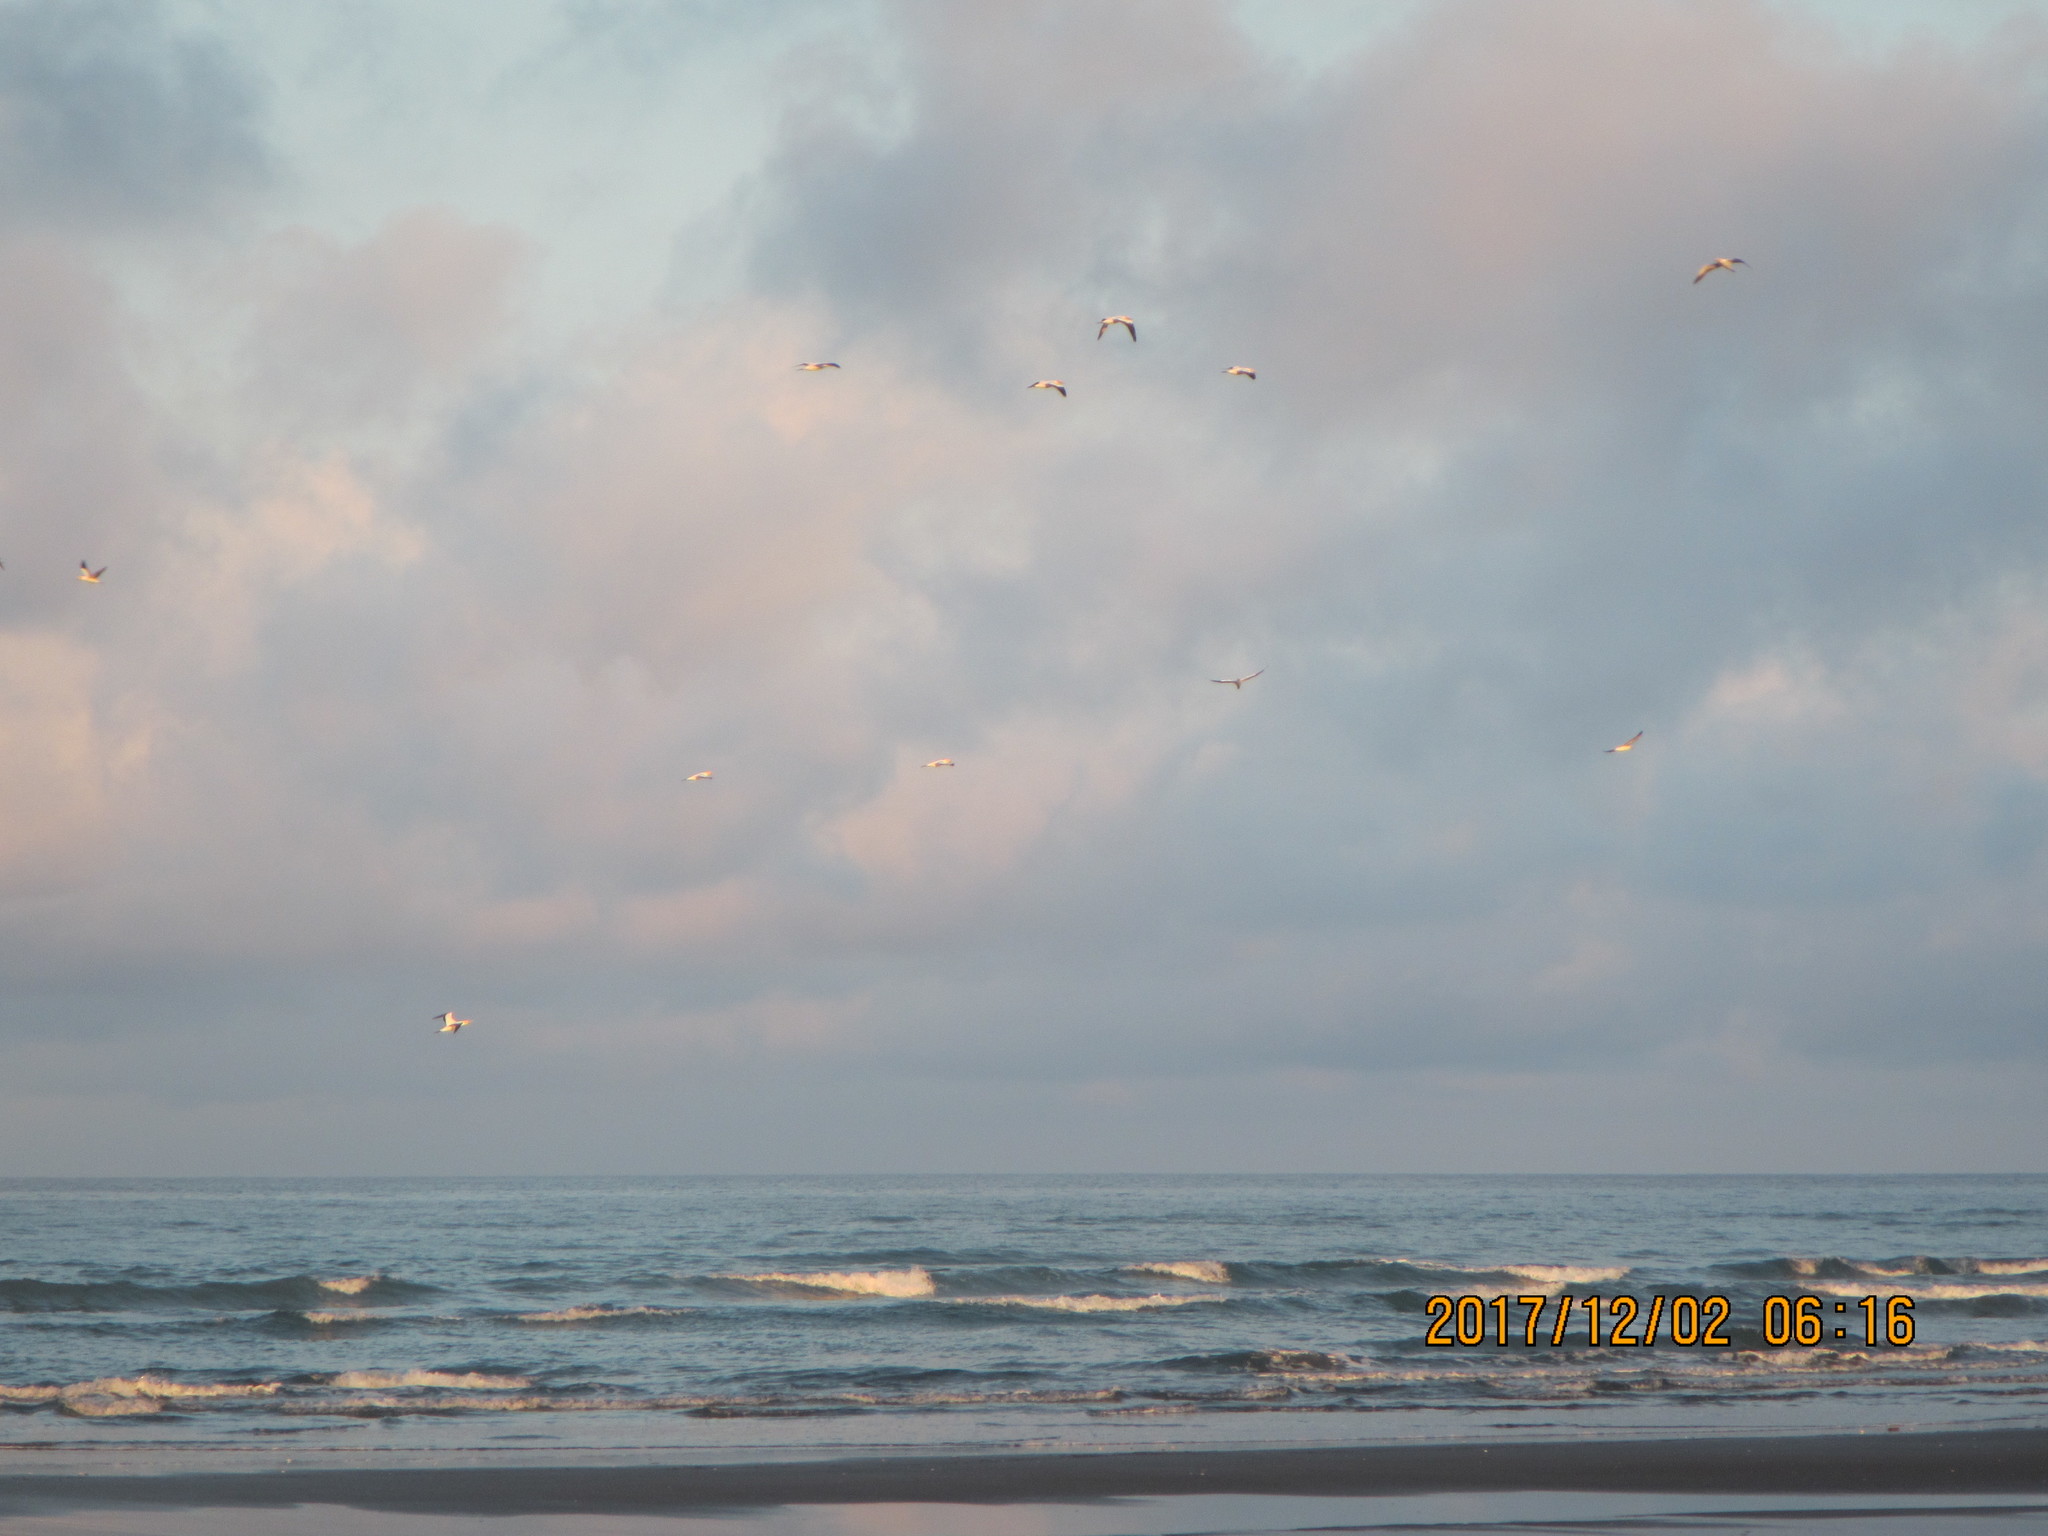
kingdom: Animalia
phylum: Chordata
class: Aves
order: Suliformes
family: Sulidae
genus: Morus
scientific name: Morus serrator
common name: Australasian gannet
